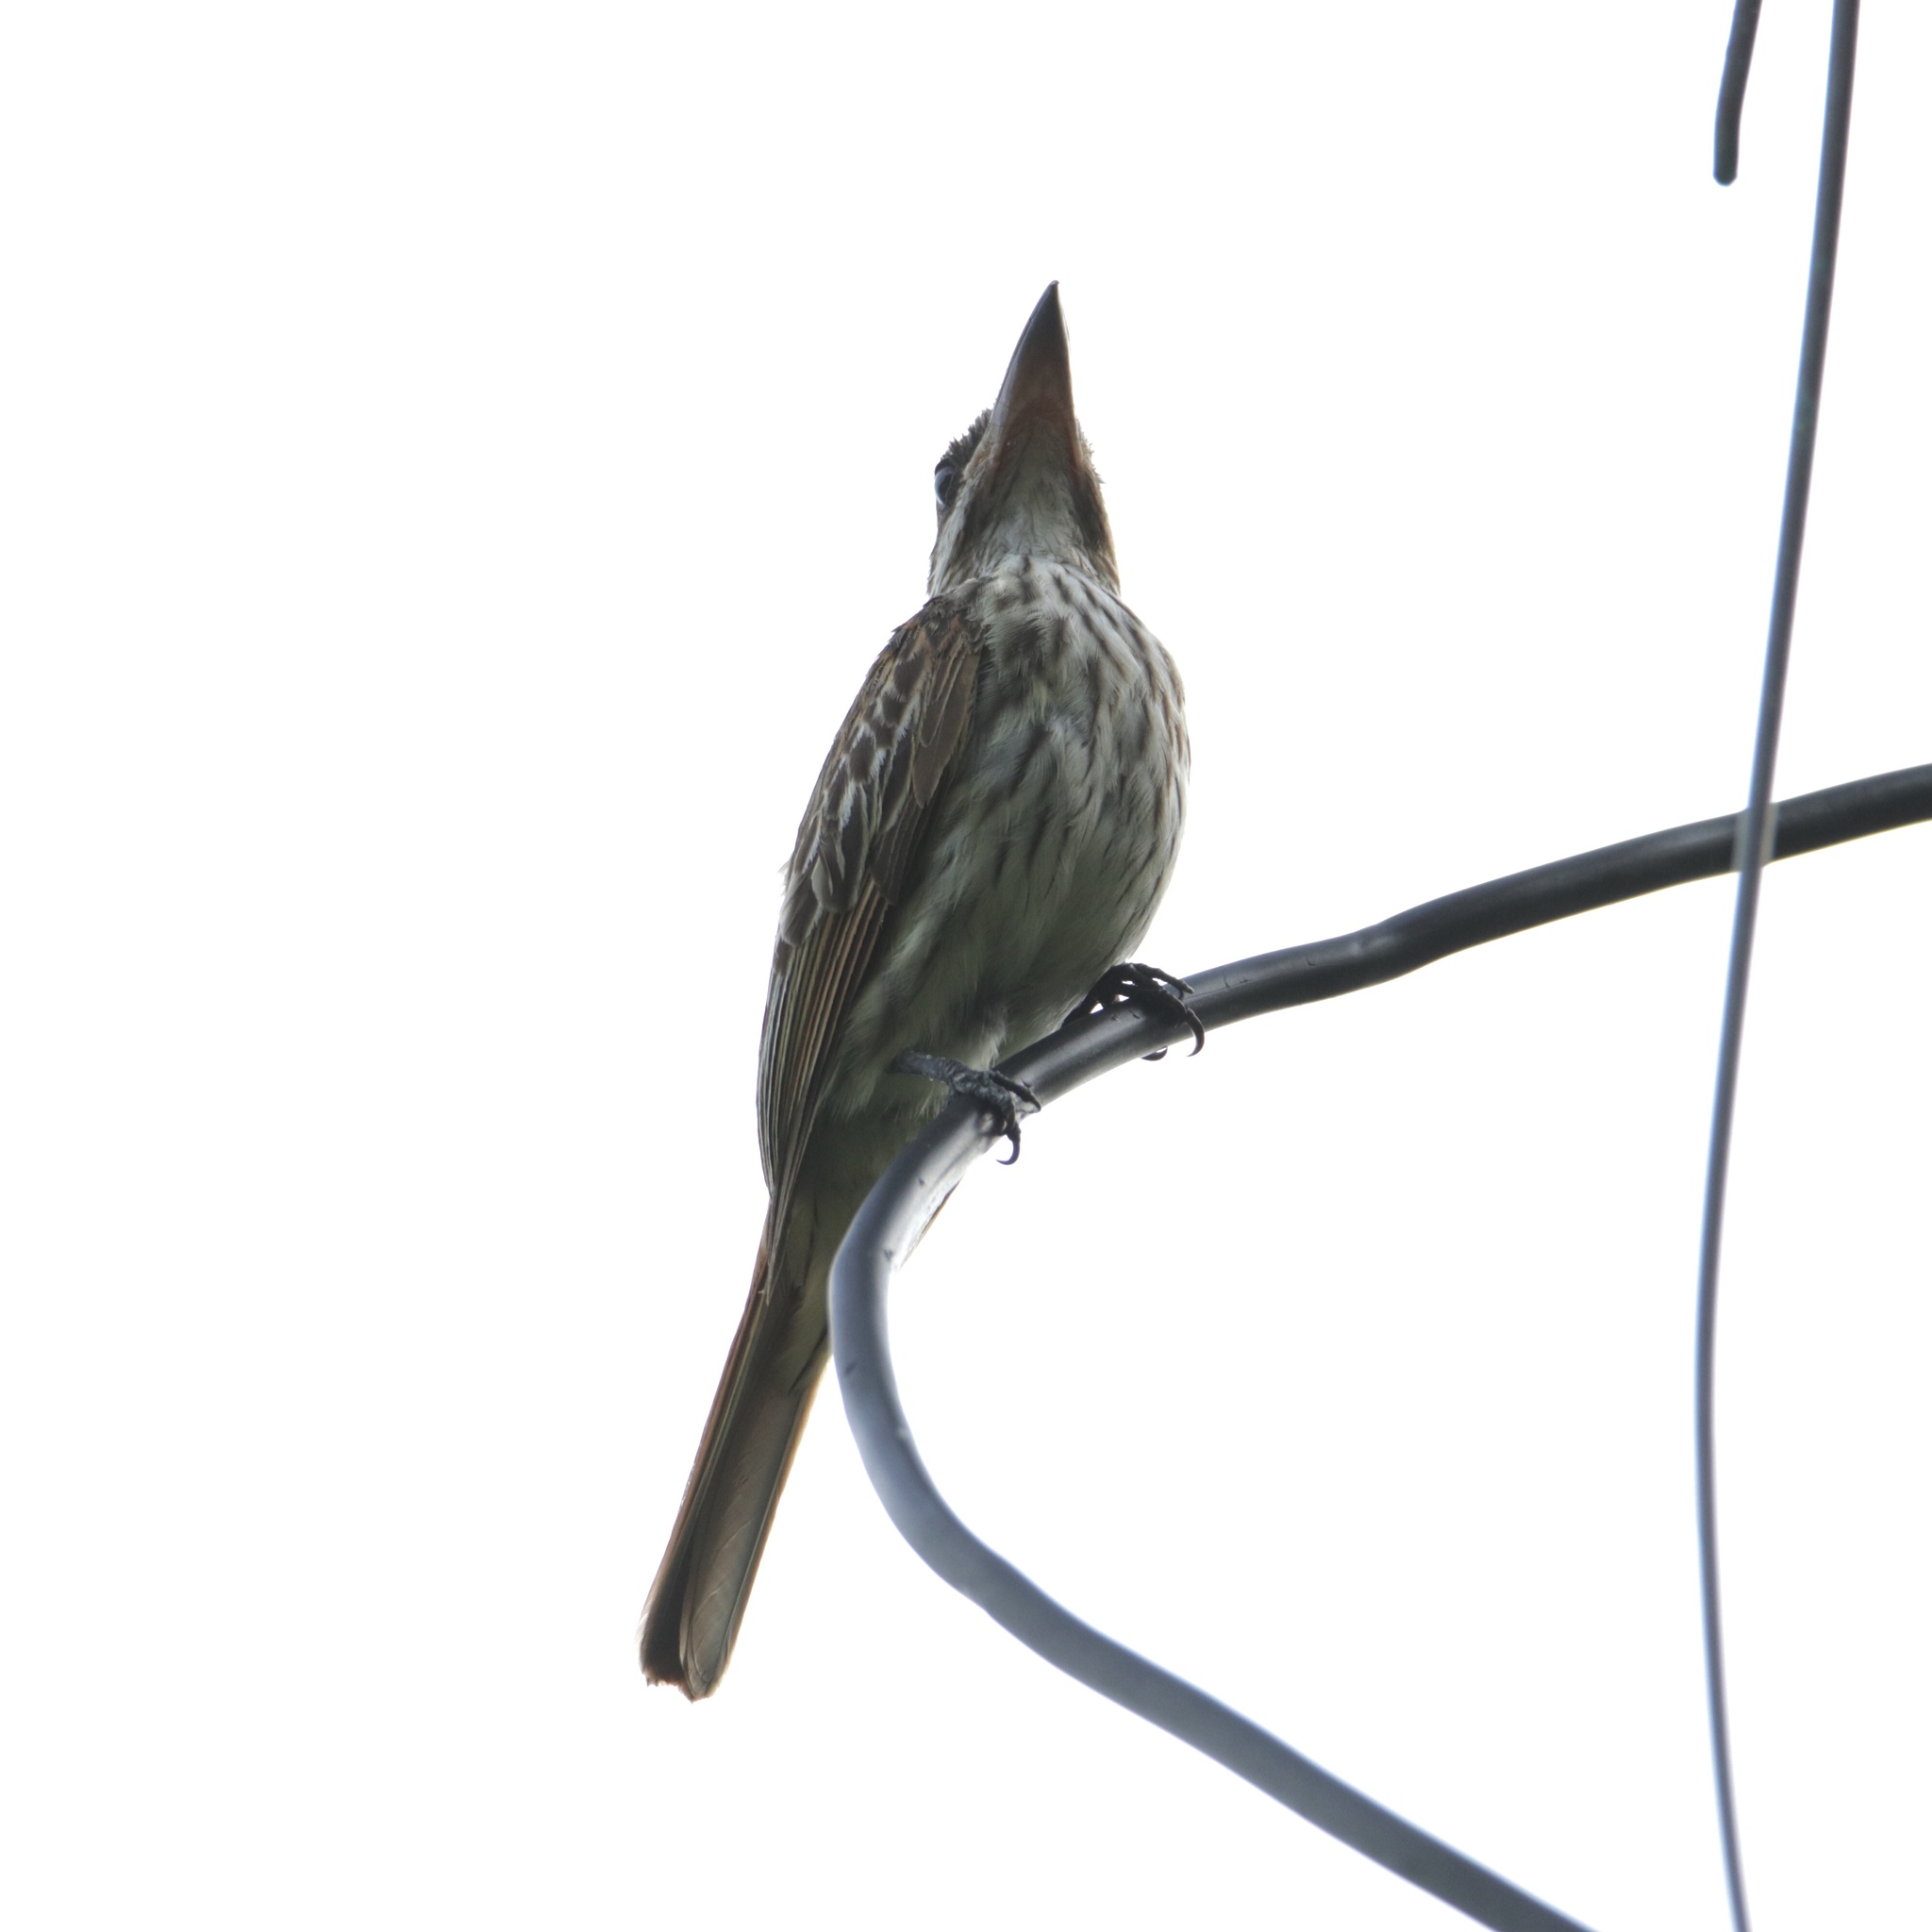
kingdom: Animalia
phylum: Chordata
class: Aves
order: Passeriformes
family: Tyrannidae
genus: Myiodynastes
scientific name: Myiodynastes maculatus
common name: Streaked flycatcher
